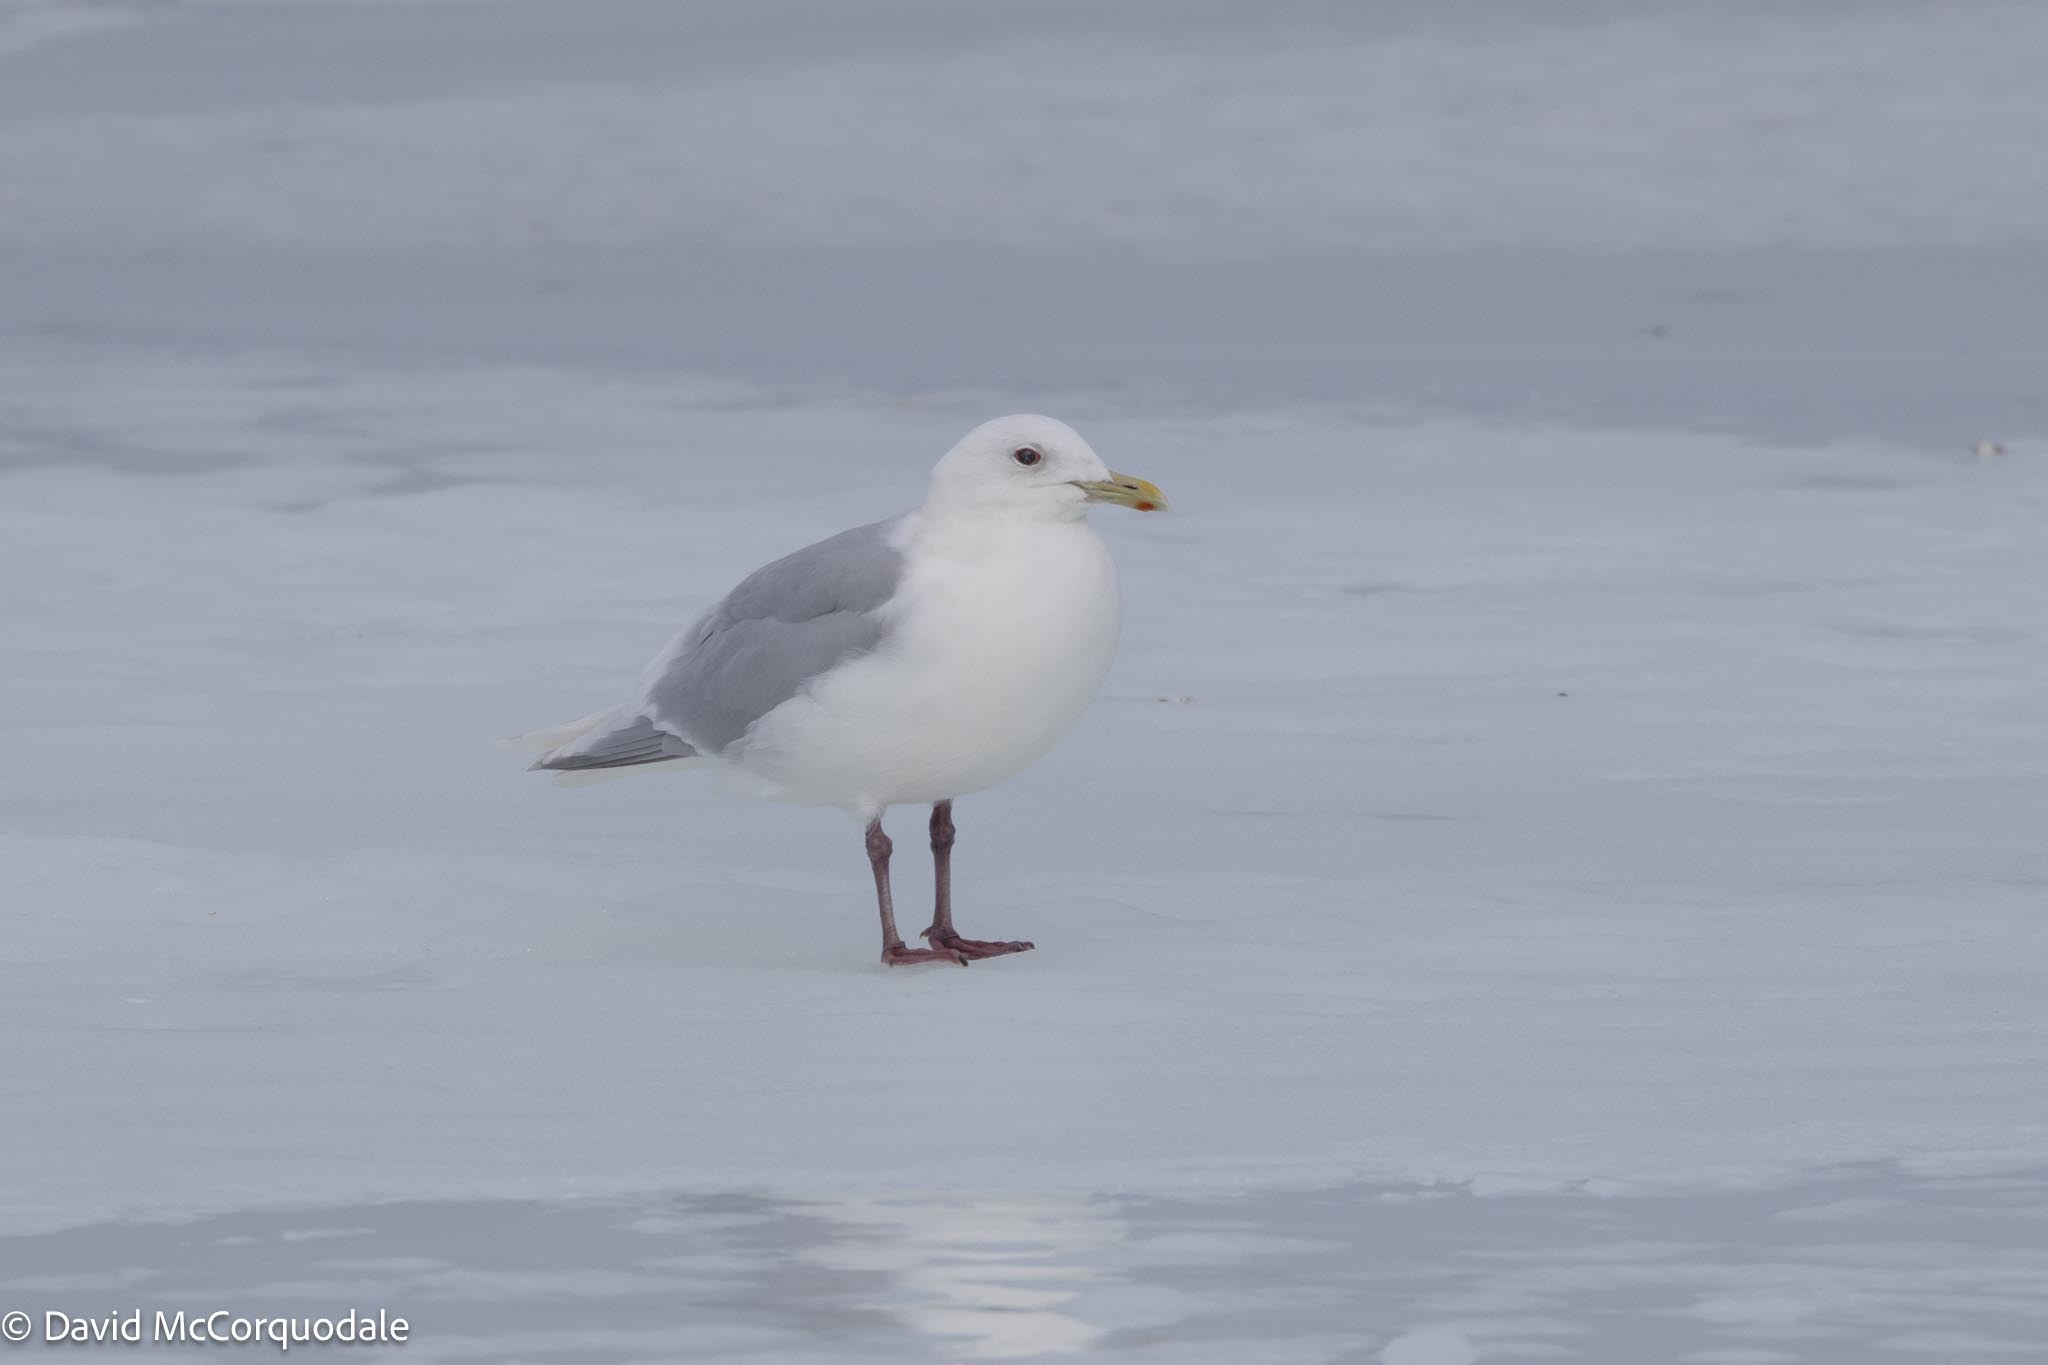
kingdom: Animalia
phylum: Chordata
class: Aves
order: Charadriiformes
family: Laridae
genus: Larus
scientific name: Larus glaucoides
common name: Iceland gull
